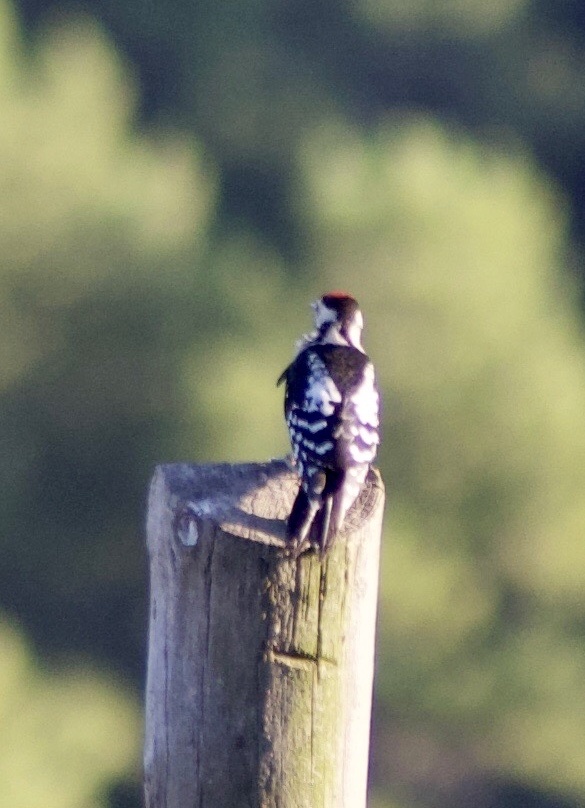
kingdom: Animalia
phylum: Chordata
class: Aves
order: Piciformes
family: Picidae
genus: Dendrocopos
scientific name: Dendrocopos major
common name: Great spotted woodpecker
